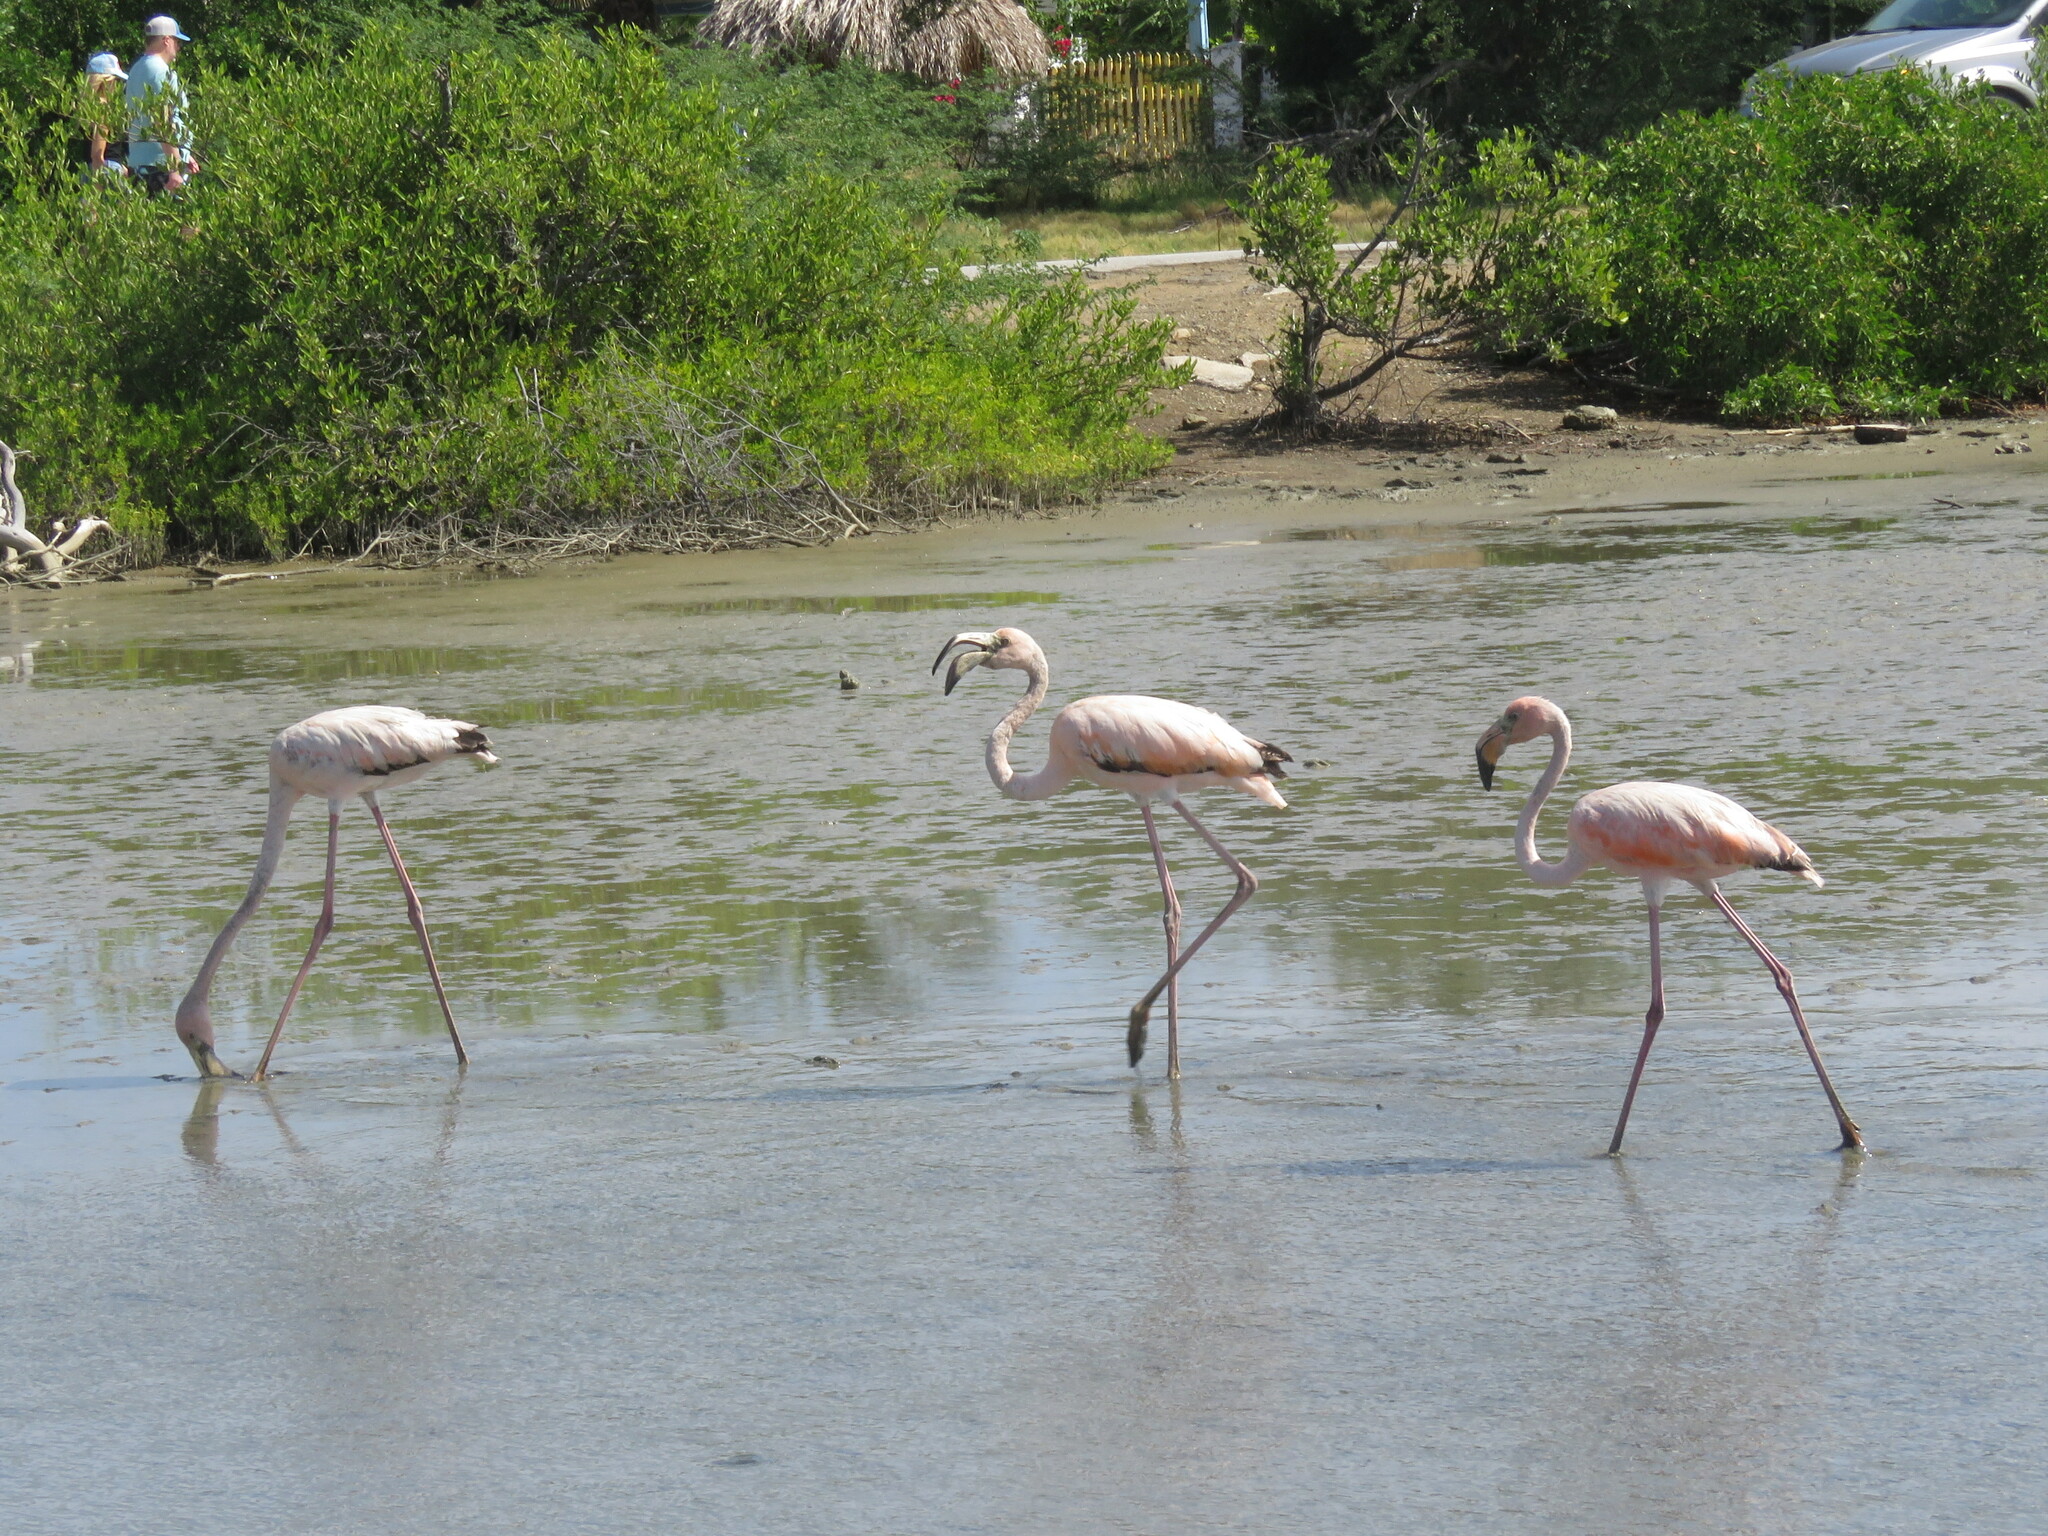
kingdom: Animalia
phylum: Chordata
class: Aves
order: Phoenicopteriformes
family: Phoenicopteridae
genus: Phoenicopterus
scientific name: Phoenicopterus ruber
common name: American flamingo
